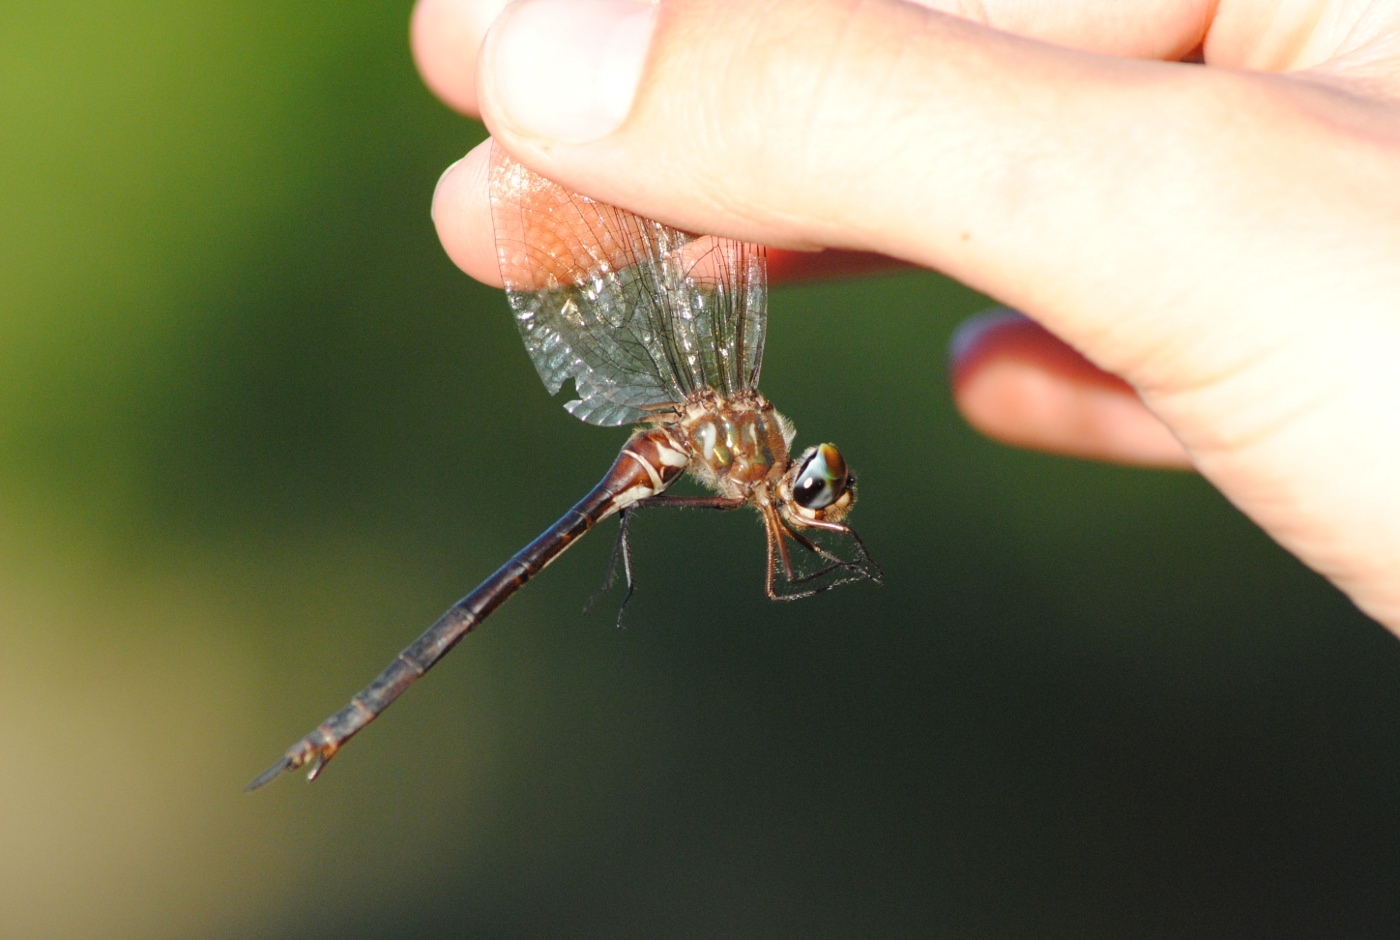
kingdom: Animalia
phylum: Arthropoda
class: Insecta
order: Odonata
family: Corduliidae
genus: Somatochlora
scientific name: Somatochlora filosa
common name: Fine-lined emerald
